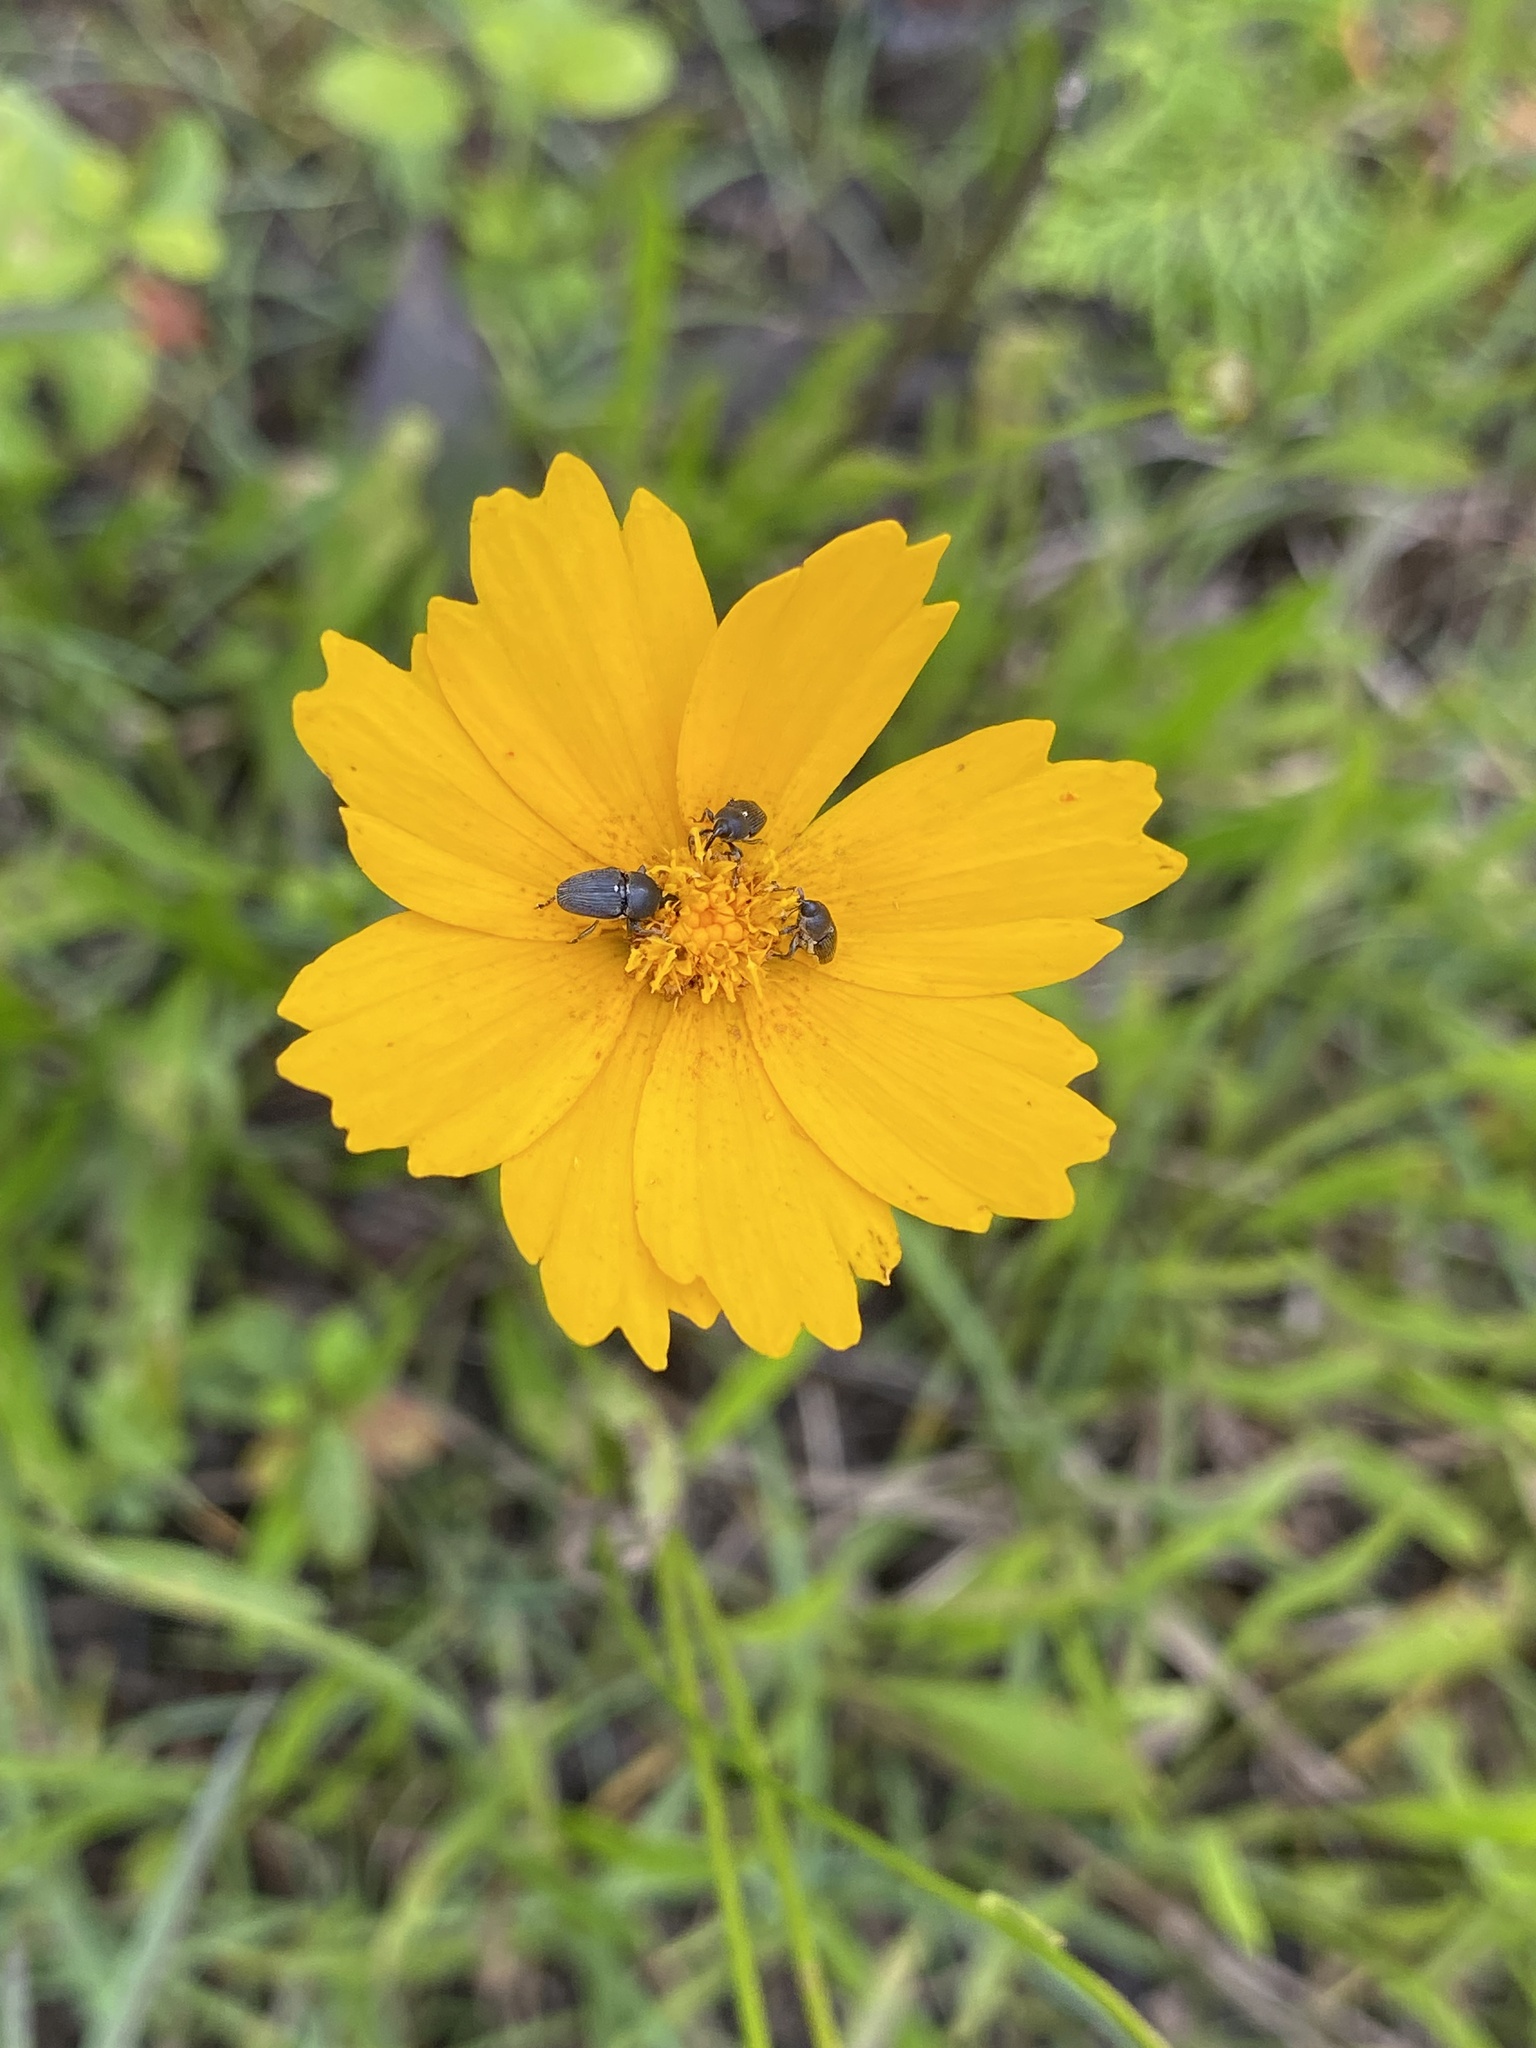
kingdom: Plantae
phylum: Tracheophyta
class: Magnoliopsida
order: Asterales
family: Asteraceae
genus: Coreopsis
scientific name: Coreopsis lanceolata
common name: Garden coreopsis
